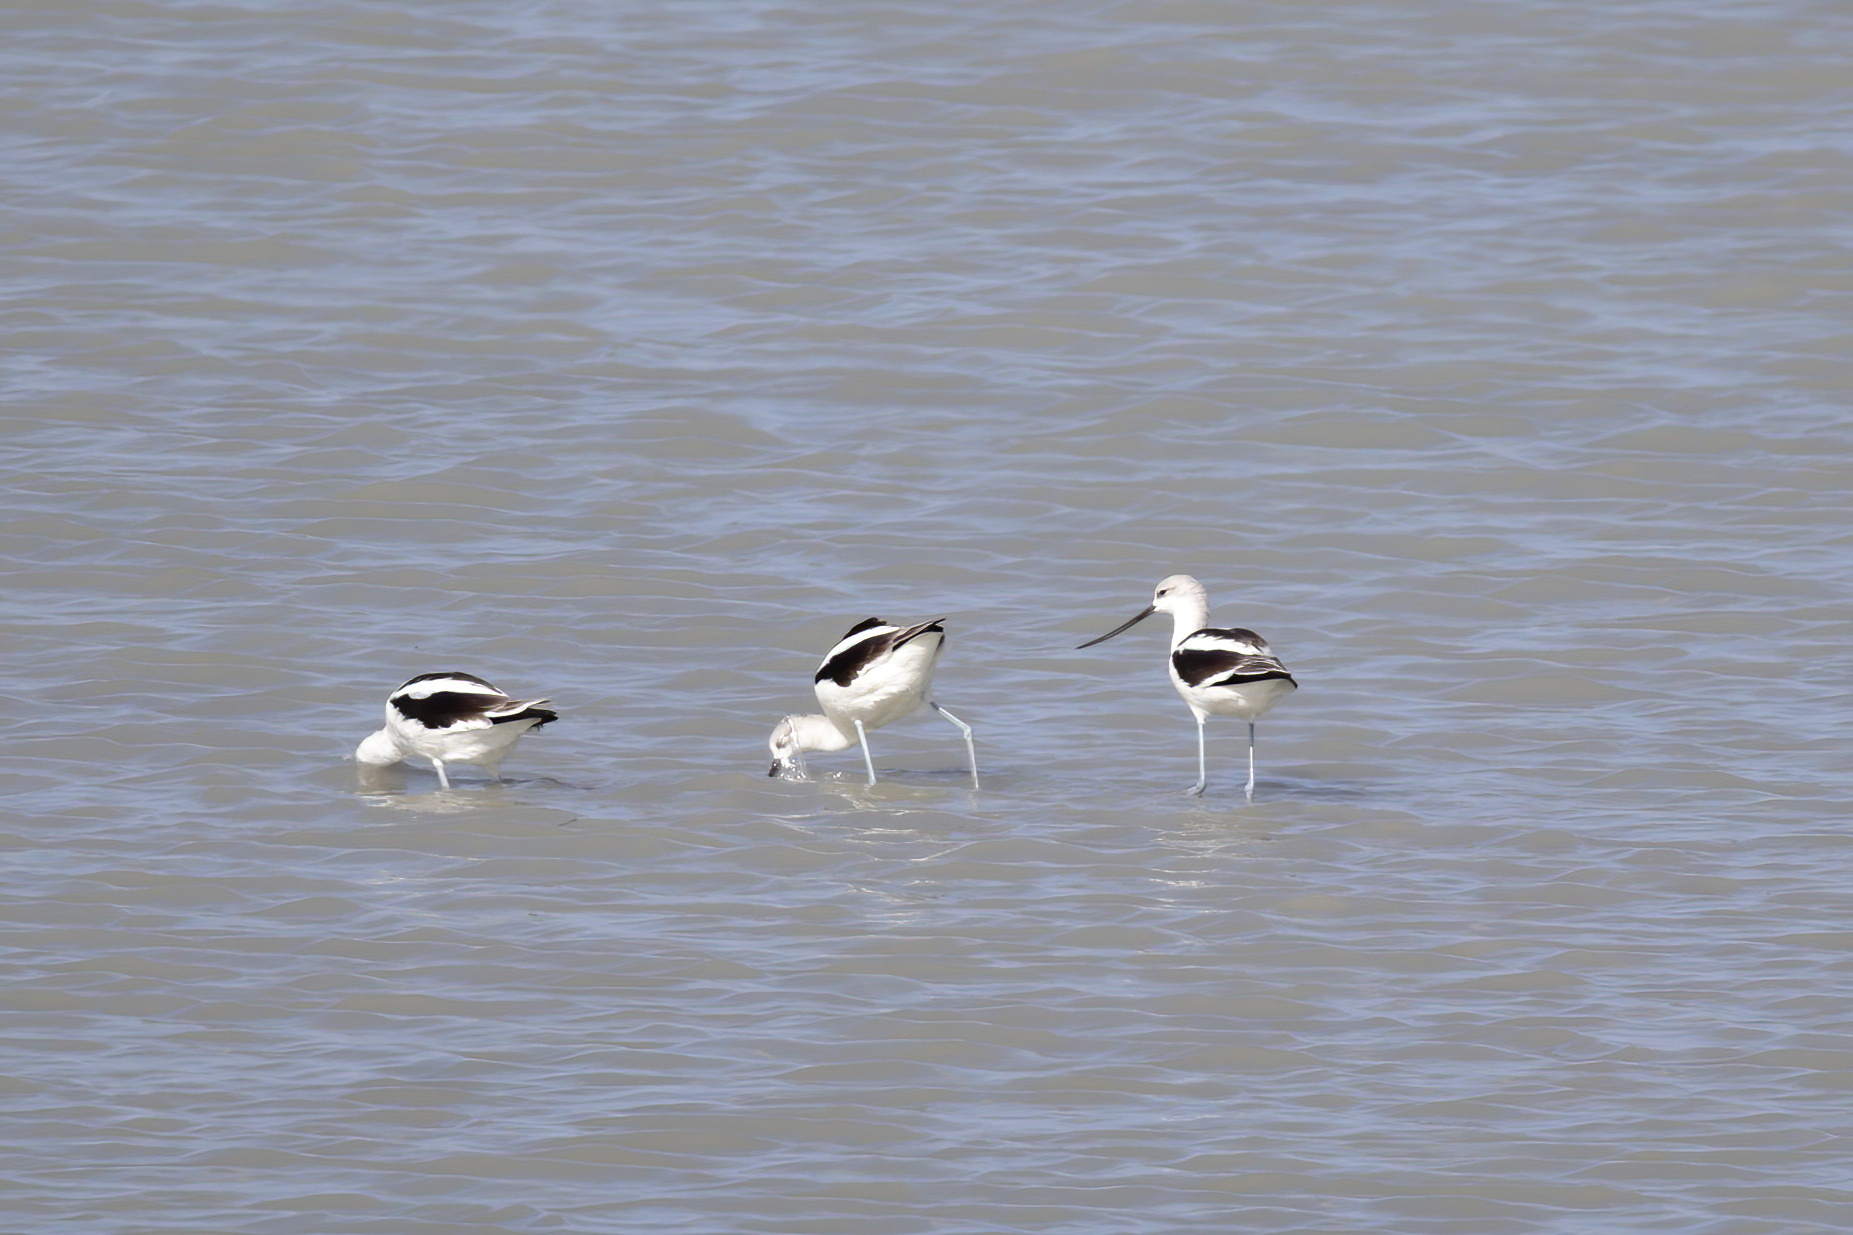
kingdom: Animalia
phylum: Chordata
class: Aves
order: Charadriiformes
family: Recurvirostridae
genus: Recurvirostra
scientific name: Recurvirostra americana
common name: American avocet
